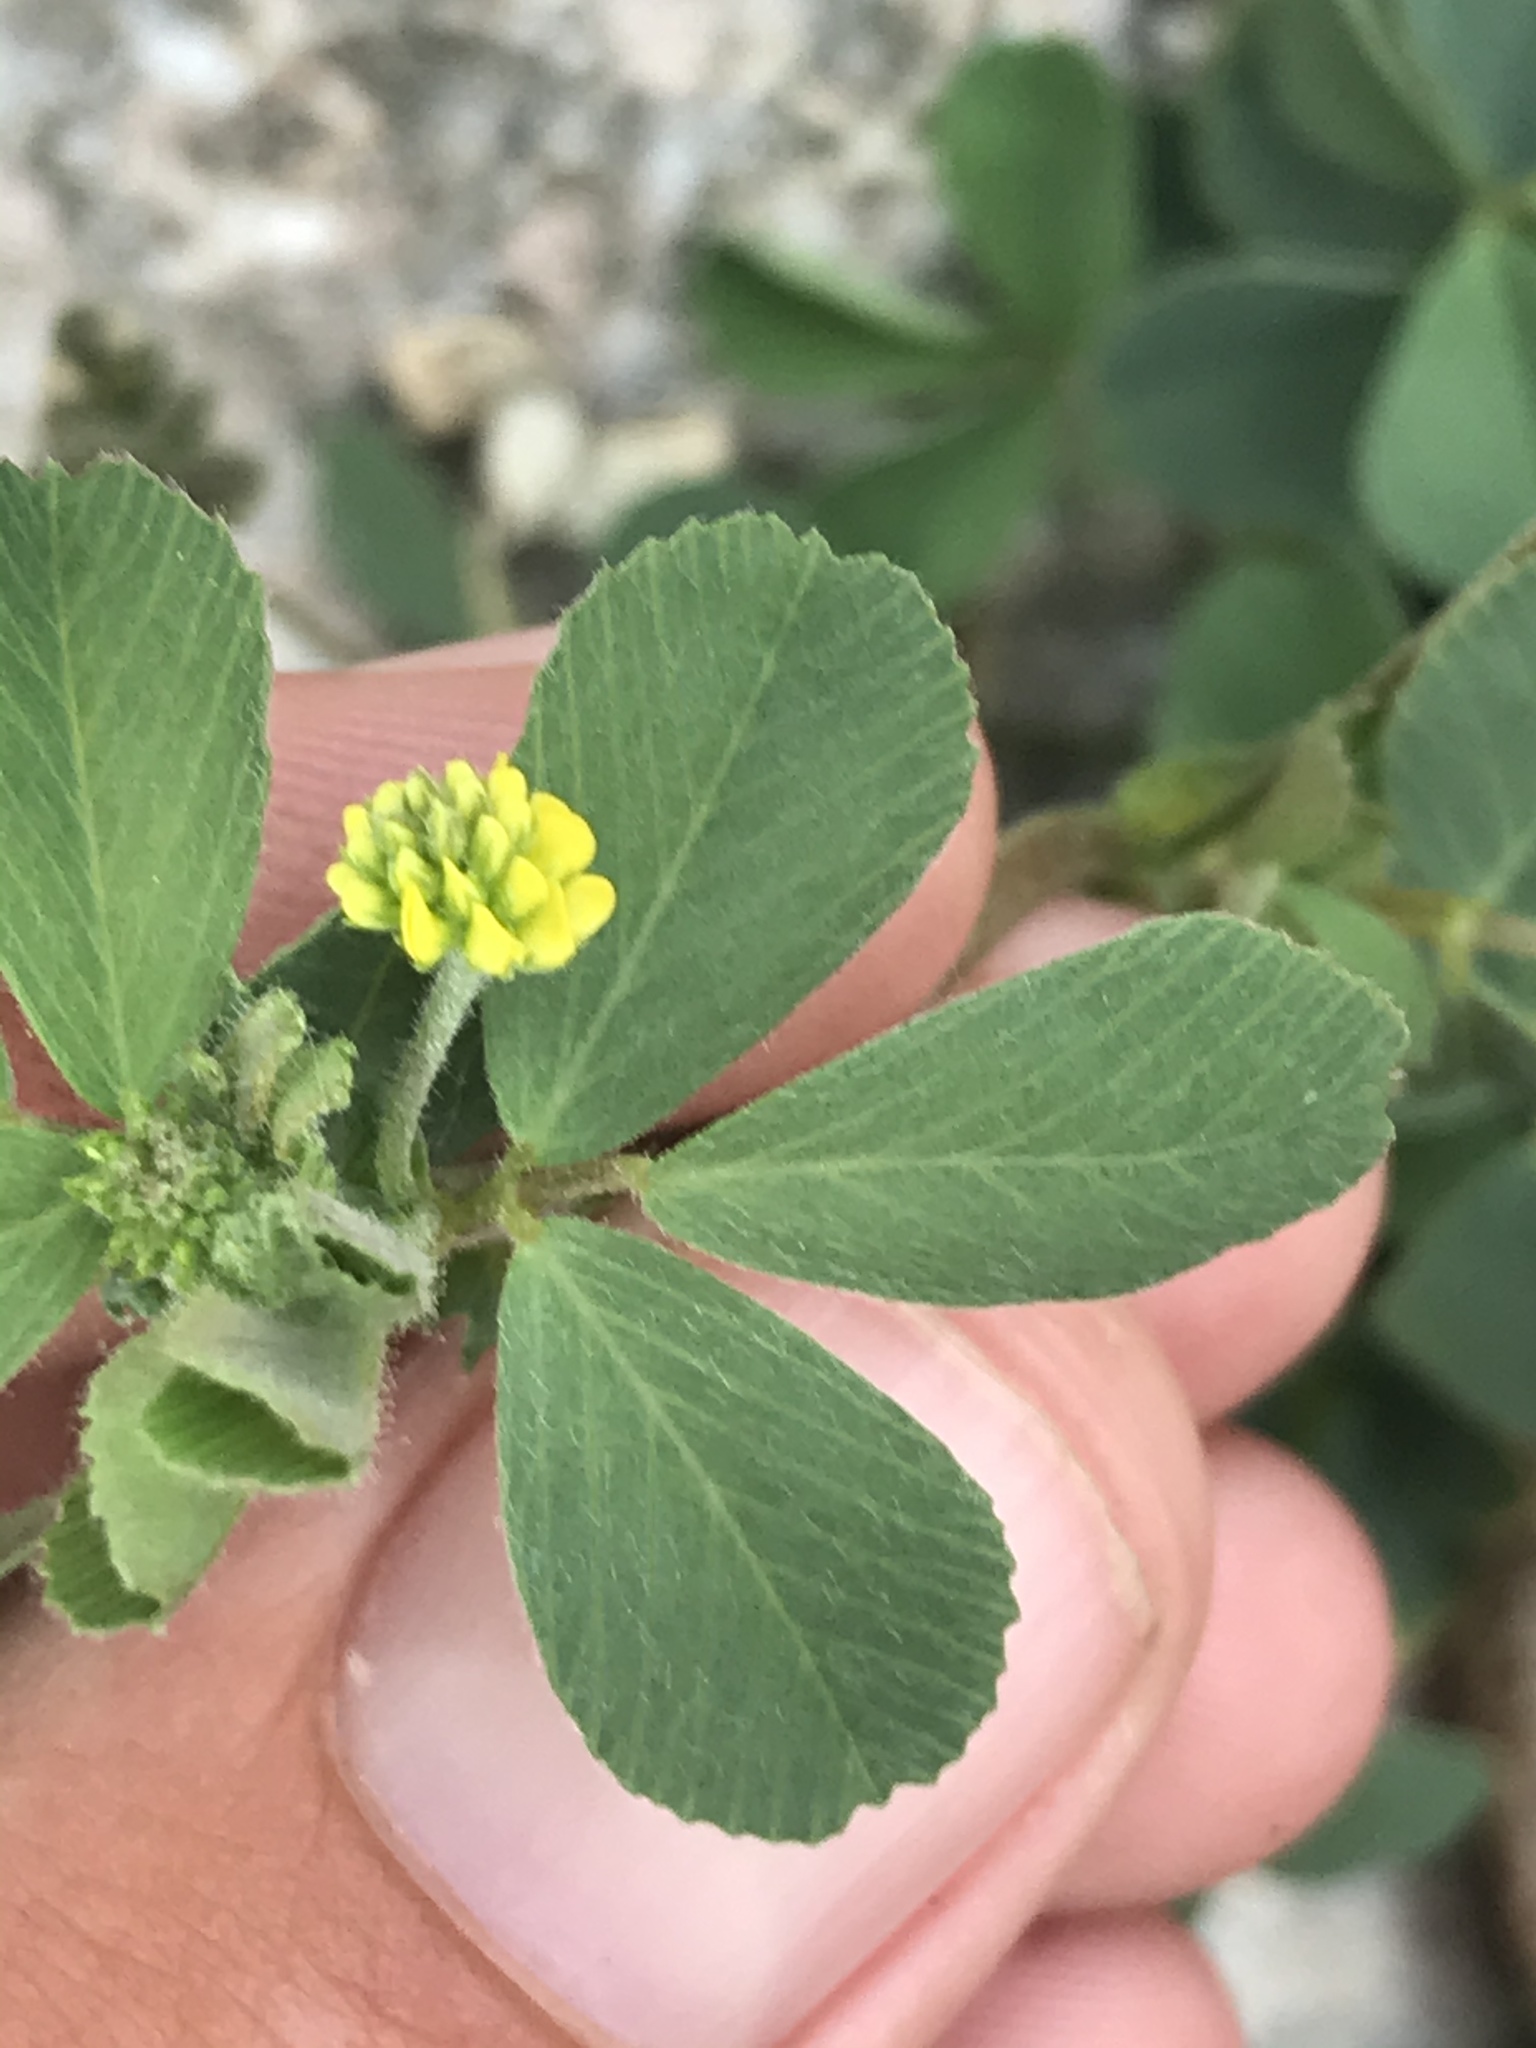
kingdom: Plantae
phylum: Tracheophyta
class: Magnoliopsida
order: Fabales
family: Fabaceae
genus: Medicago
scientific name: Medicago lupulina
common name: Black medick
